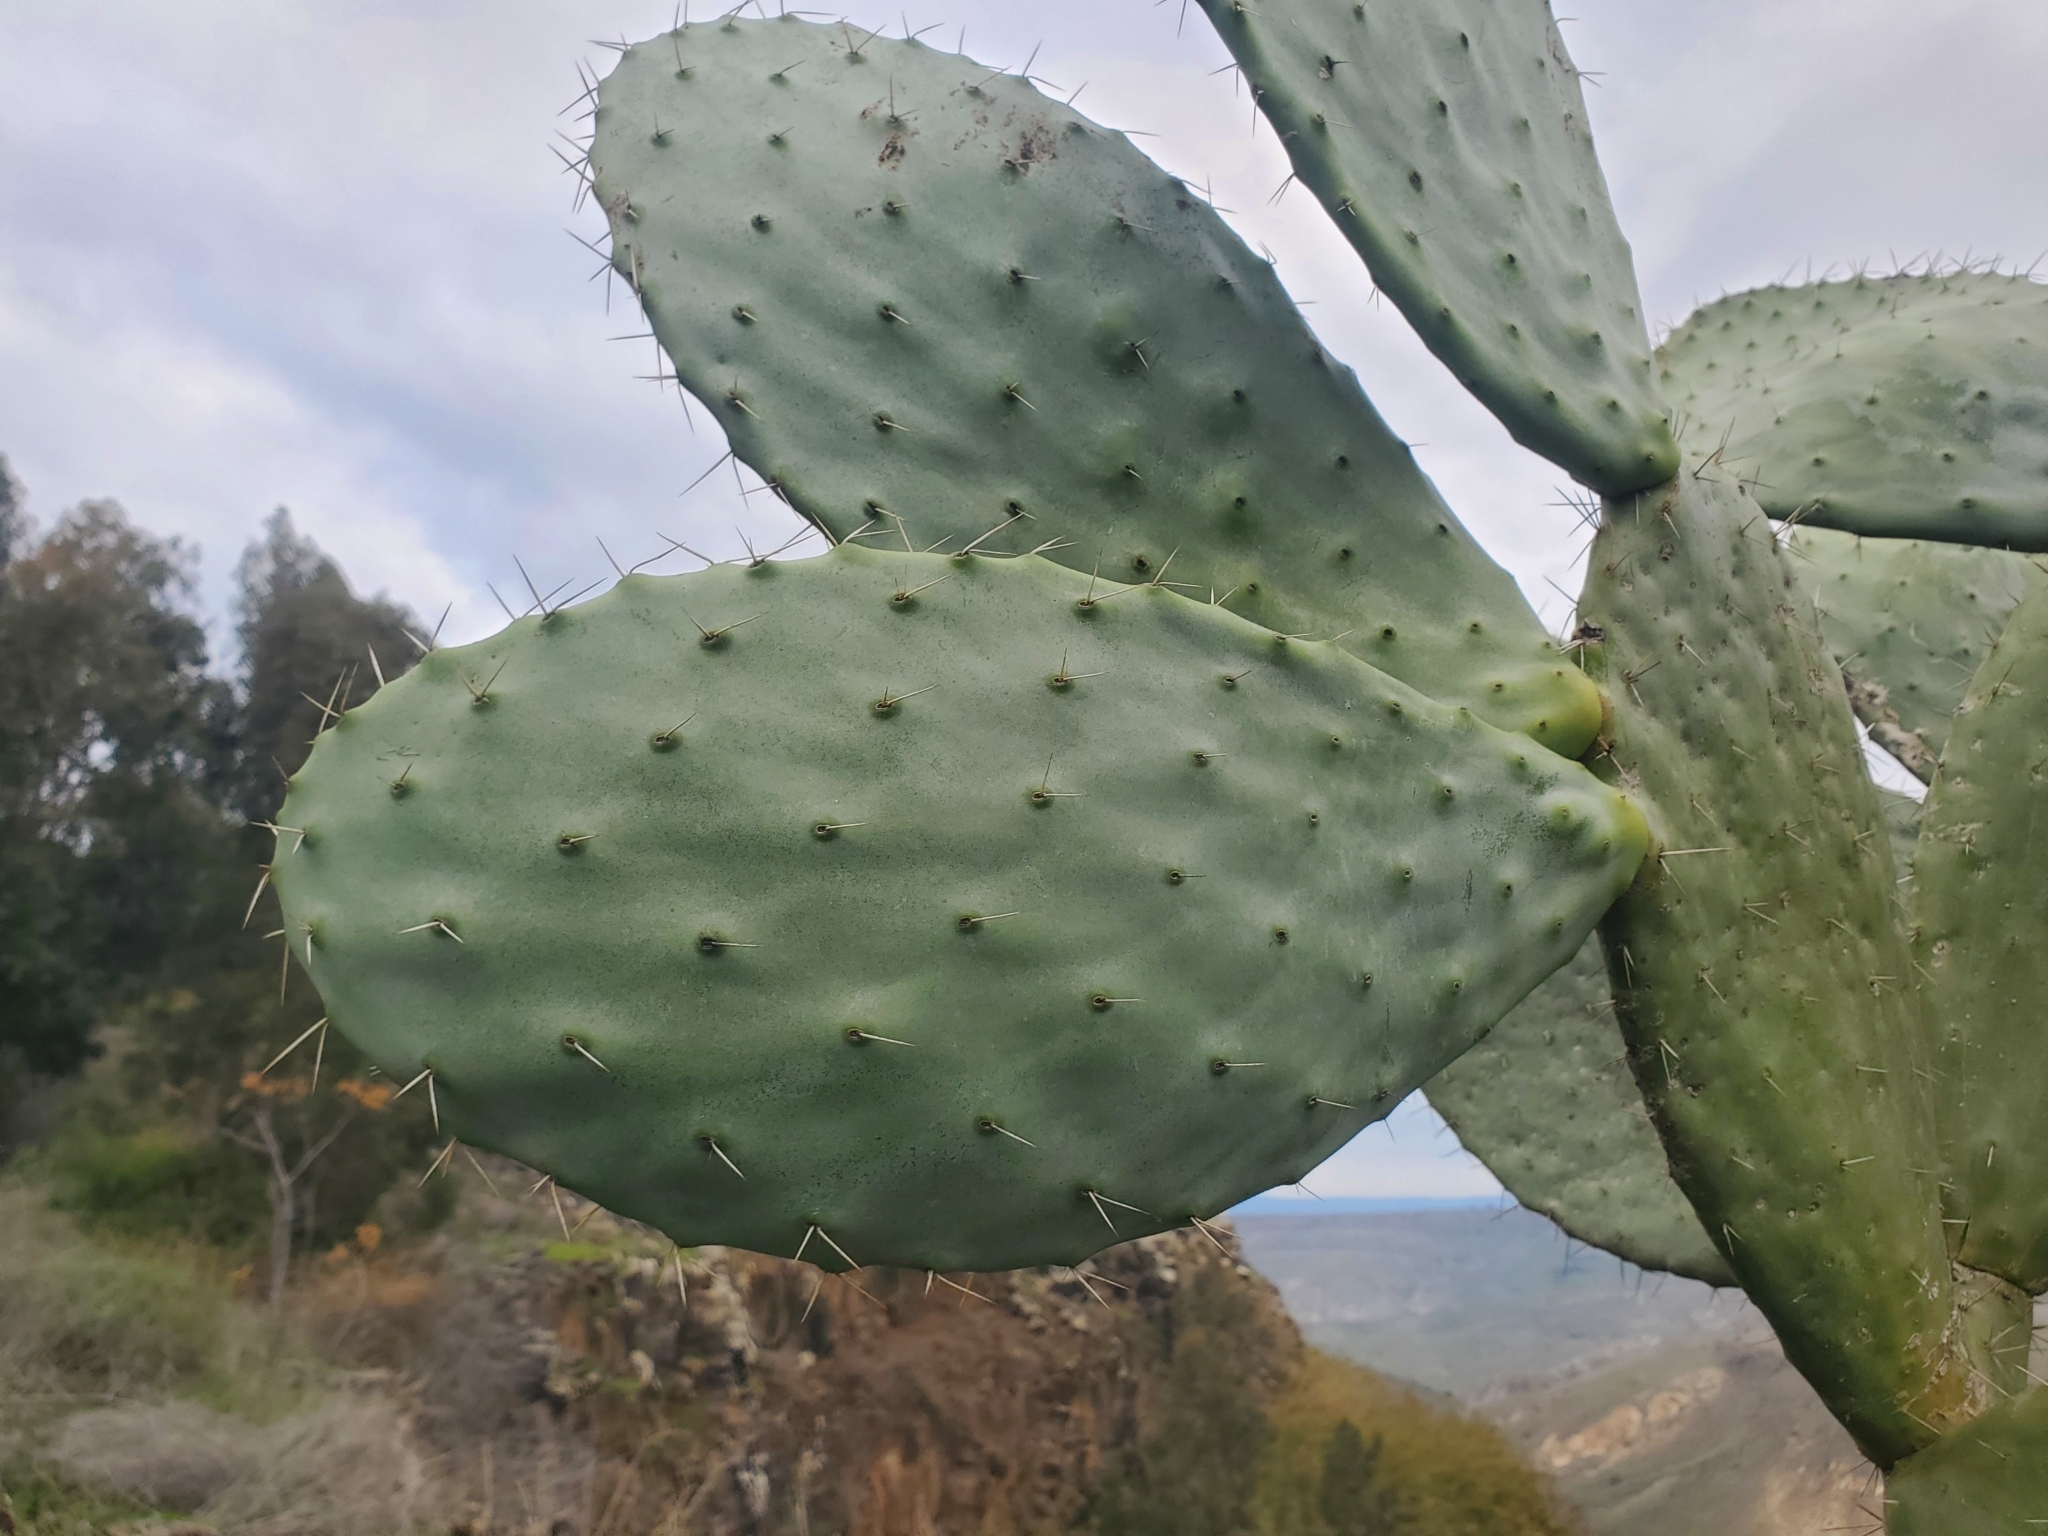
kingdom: Plantae
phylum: Tracheophyta
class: Magnoliopsida
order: Caryophyllales
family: Cactaceae
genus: Opuntia
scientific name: Opuntia ficus-indica
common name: Barbary fig
